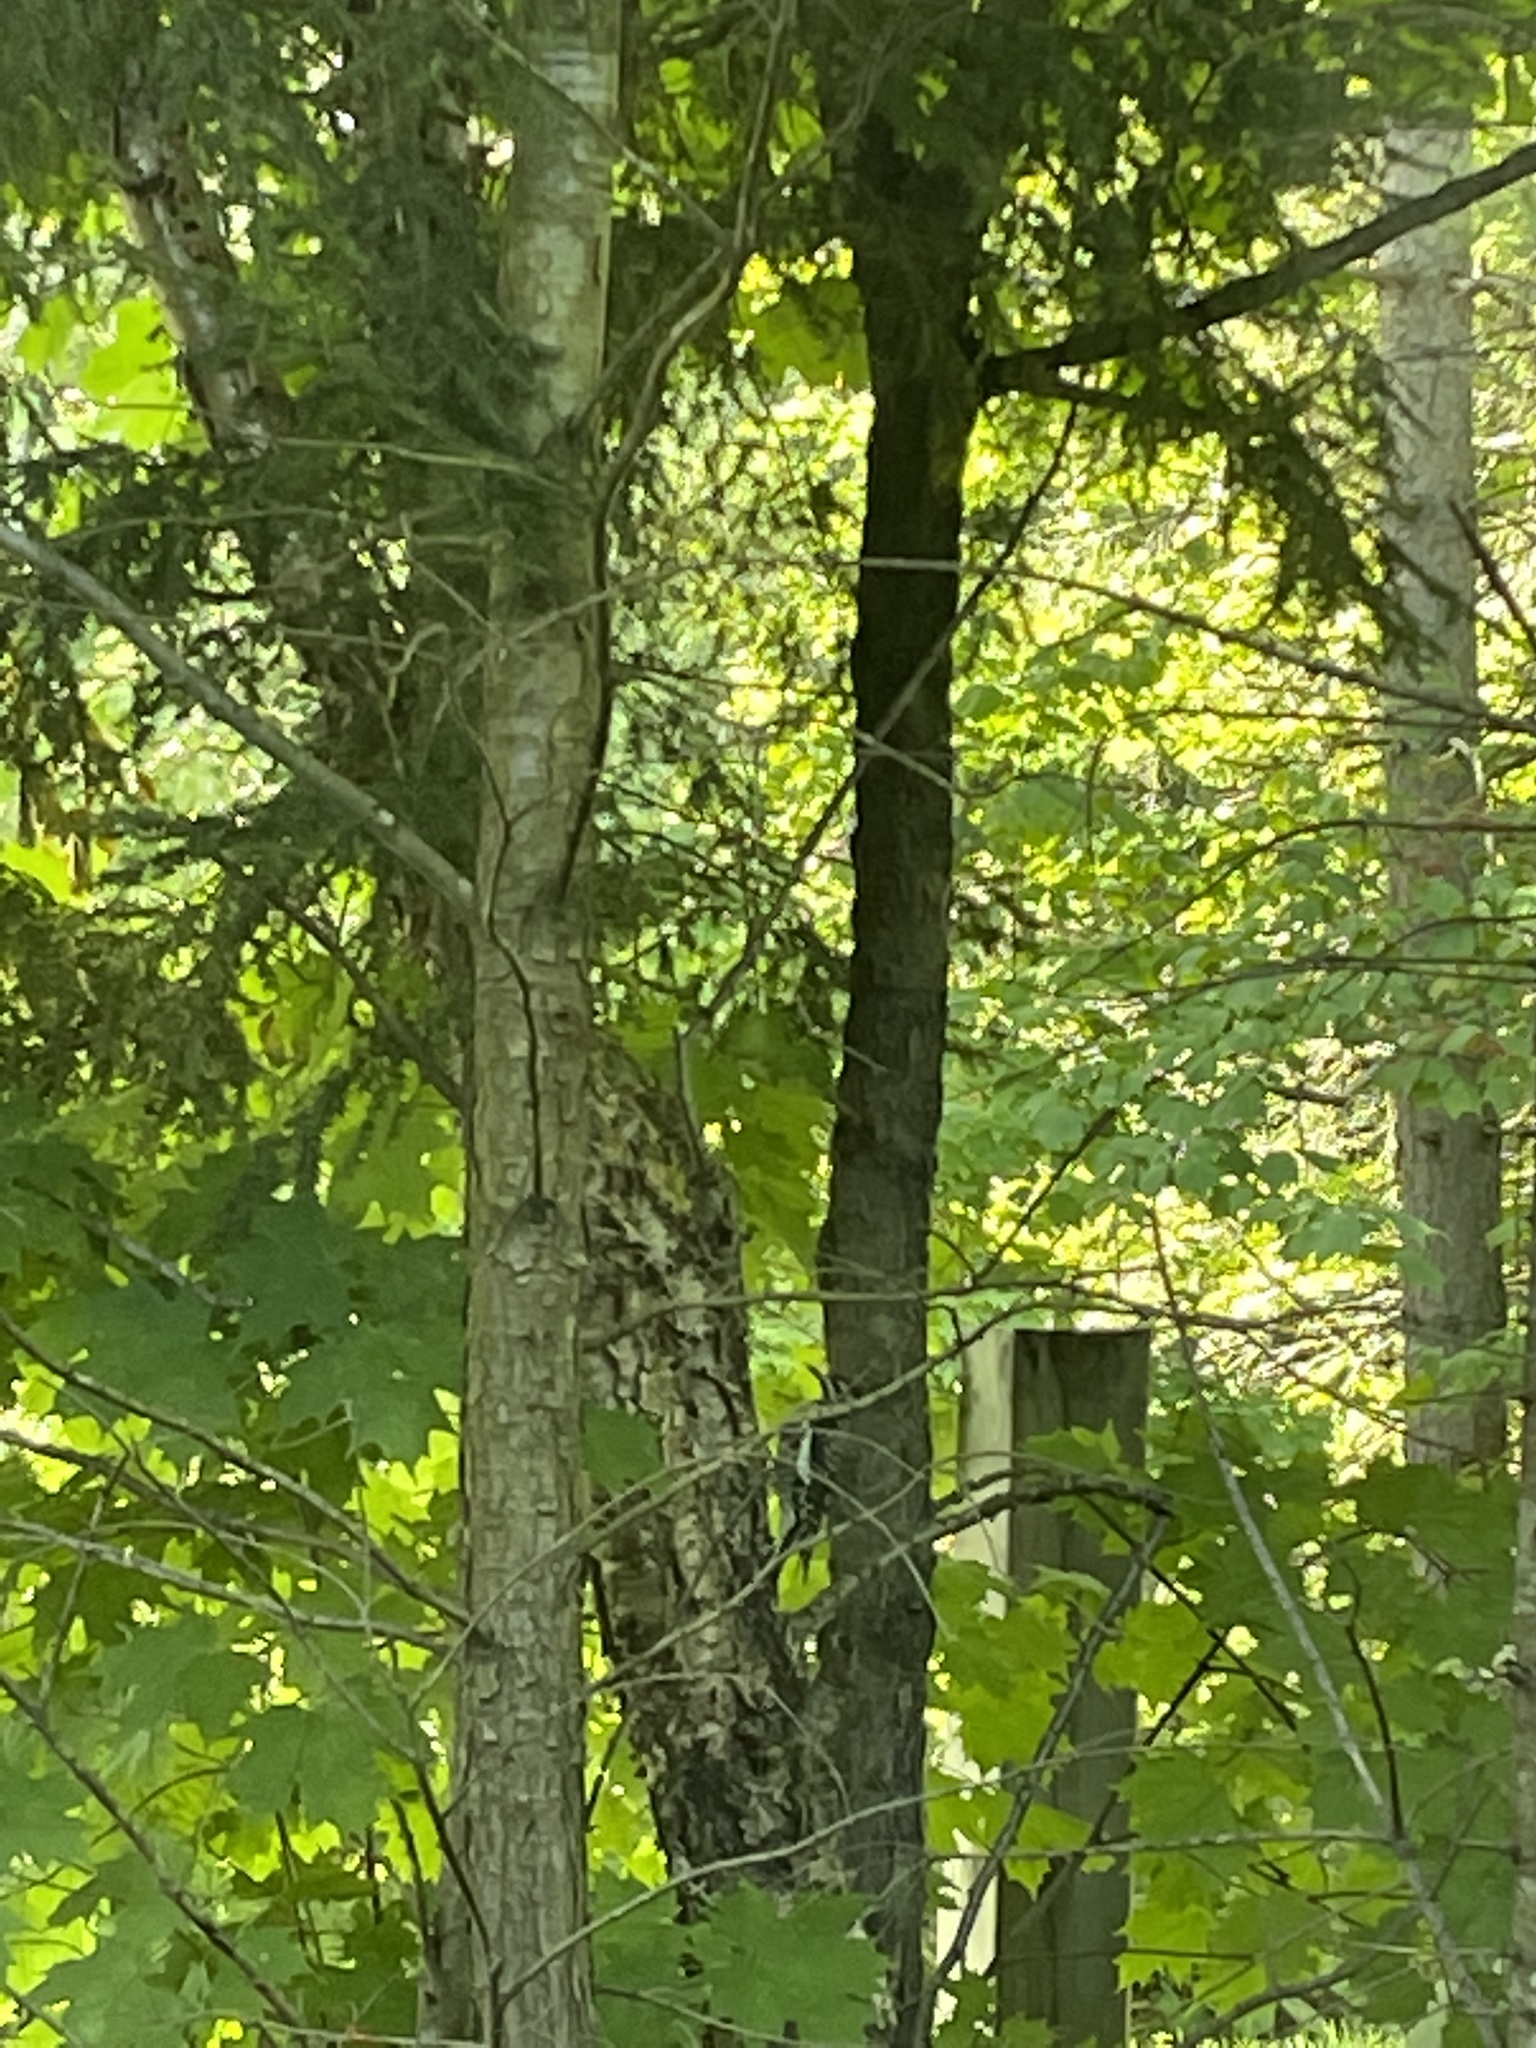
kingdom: Animalia
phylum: Chordata
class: Aves
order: Piciformes
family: Picidae
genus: Sphyrapicus
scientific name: Sphyrapicus varius
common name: Yellow-bellied sapsucker
